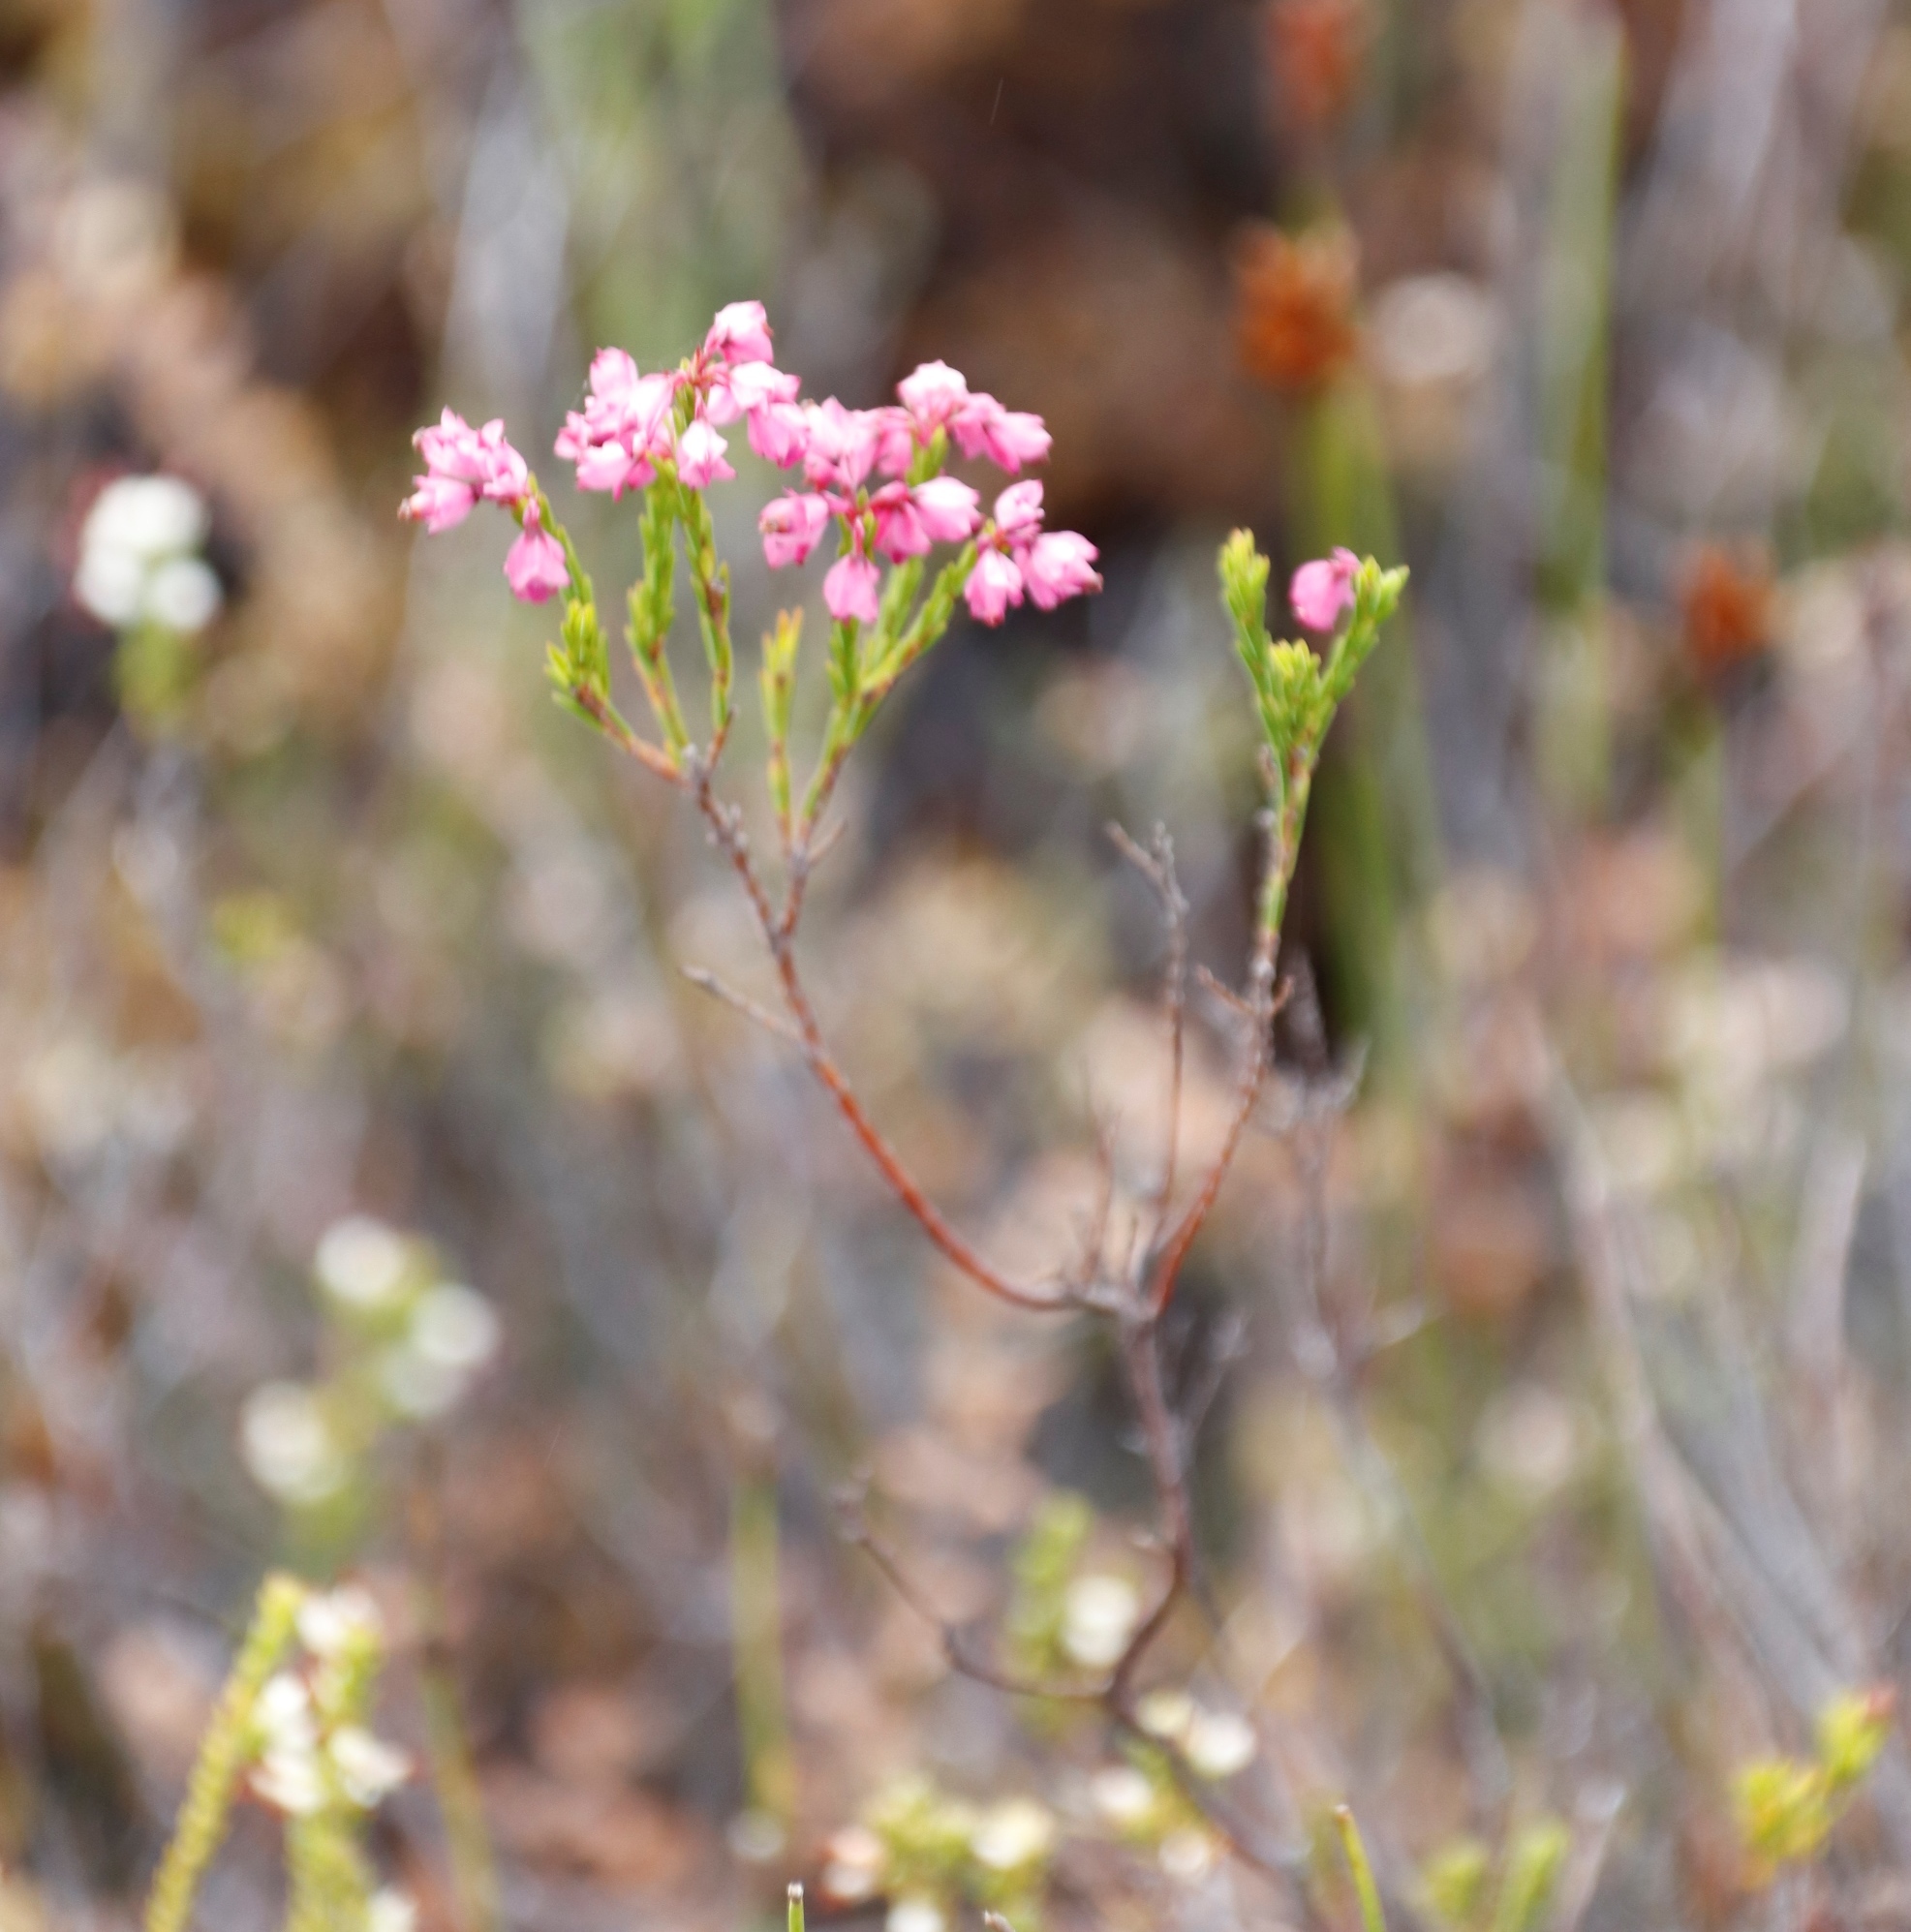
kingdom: Plantae
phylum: Tracheophyta
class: Magnoliopsida
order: Ericales
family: Ericaceae
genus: Erica
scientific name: Erica corifolia
